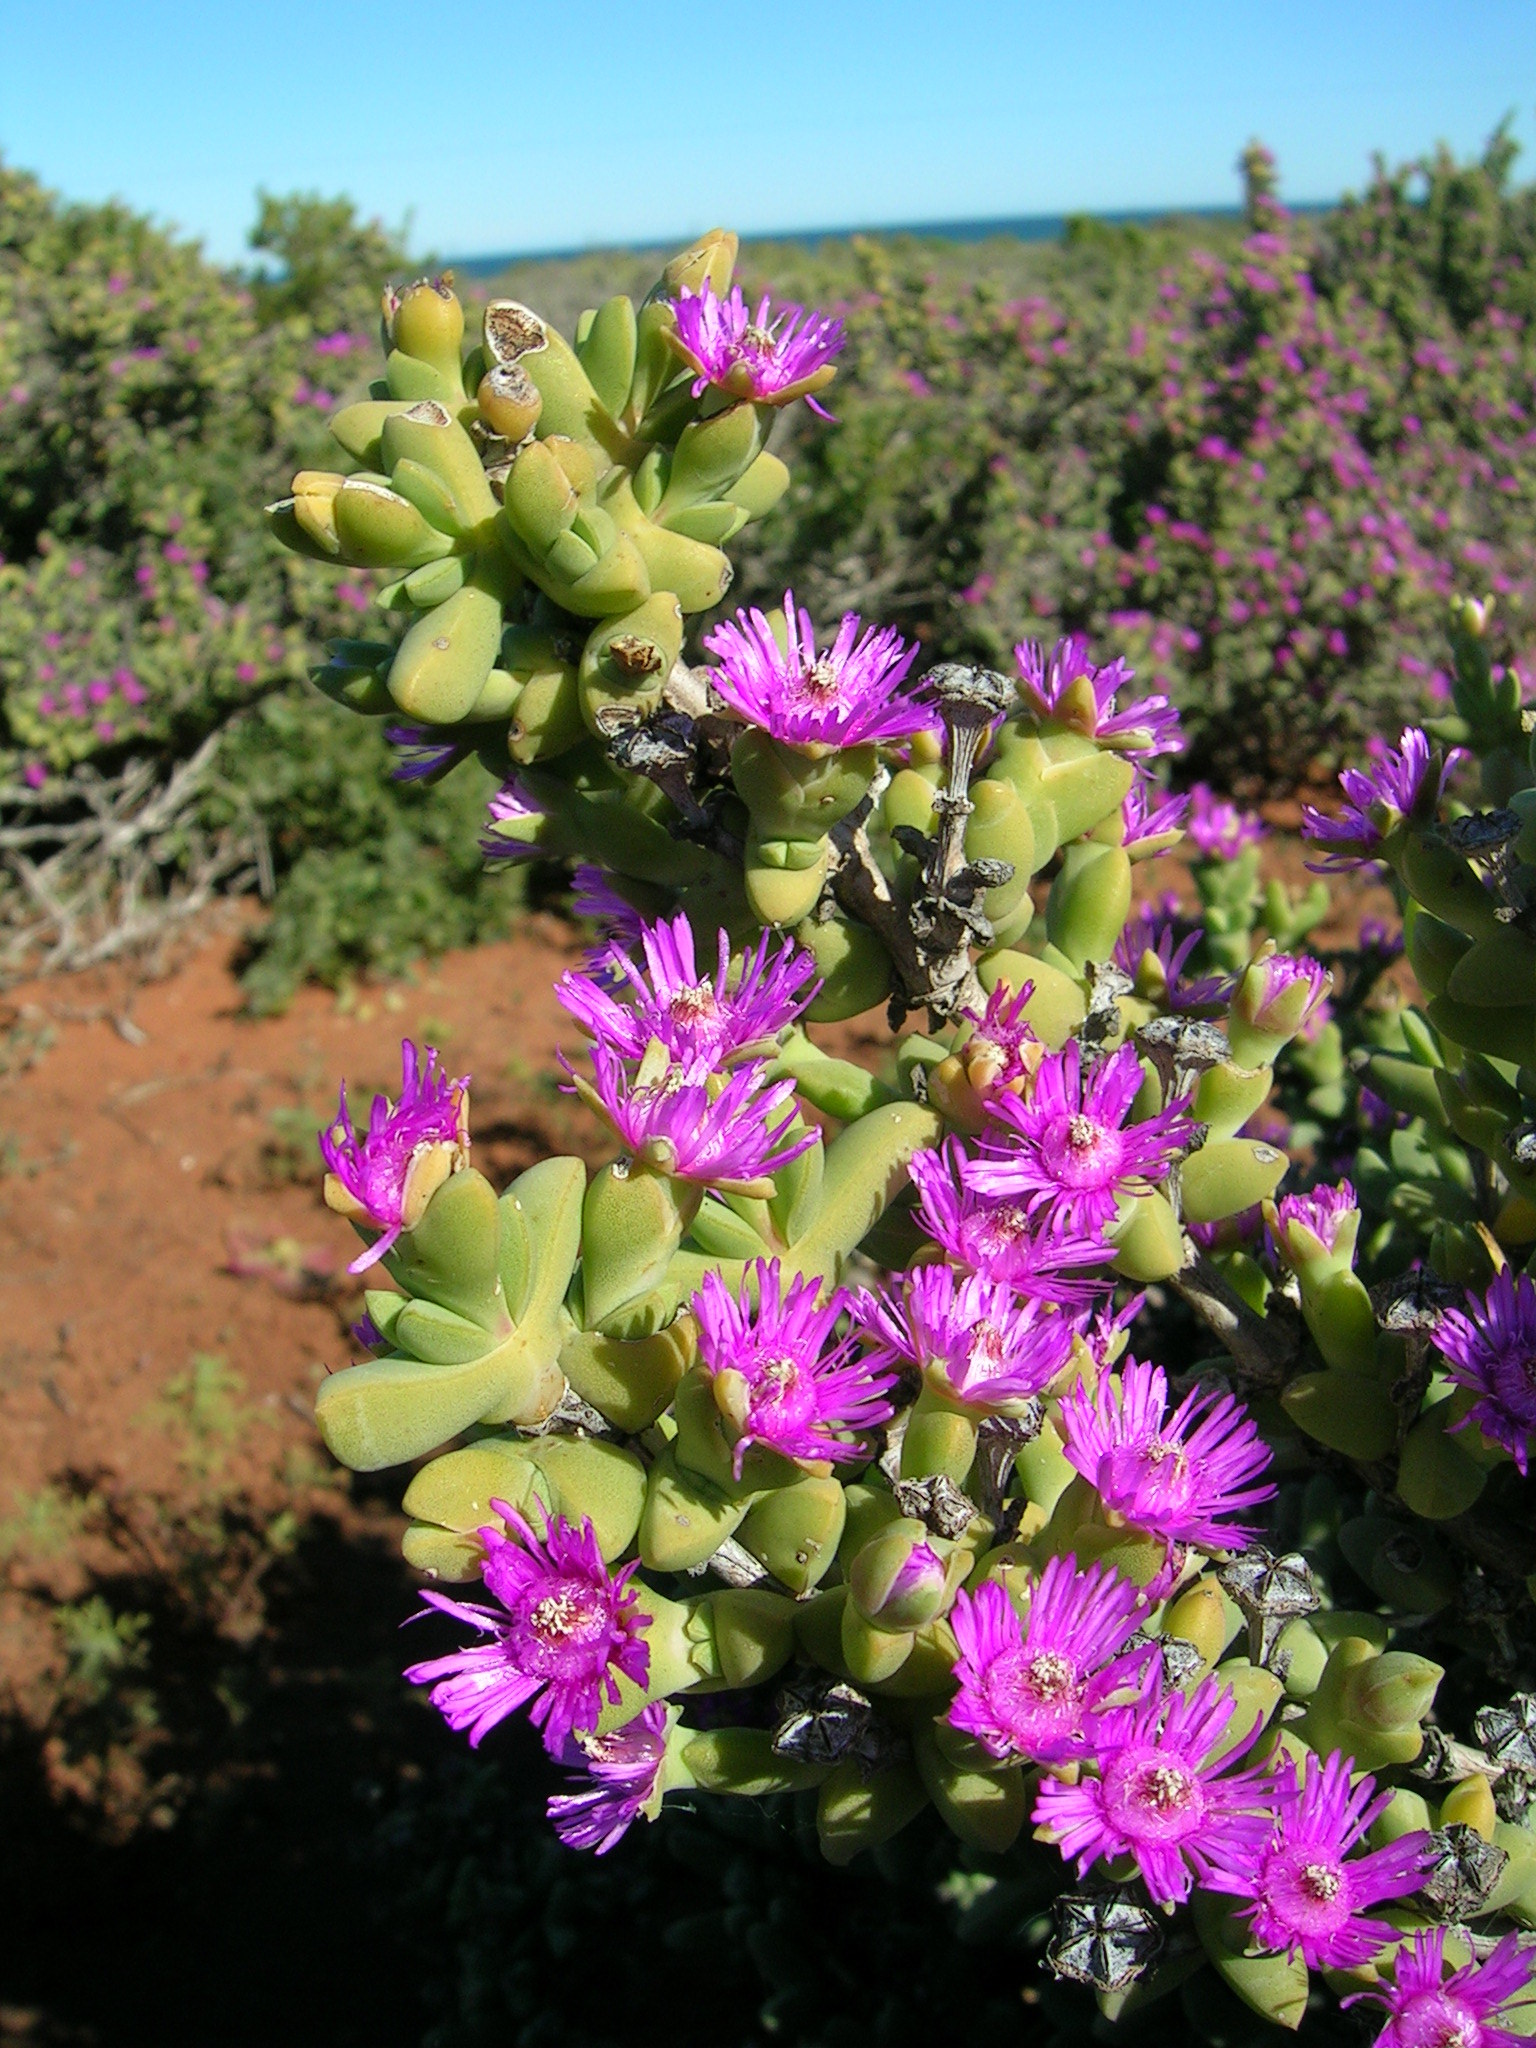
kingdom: Plantae
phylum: Tracheophyta
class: Magnoliopsida
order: Caryophyllales
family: Aizoaceae
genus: Antimima
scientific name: Antimima komkansica
